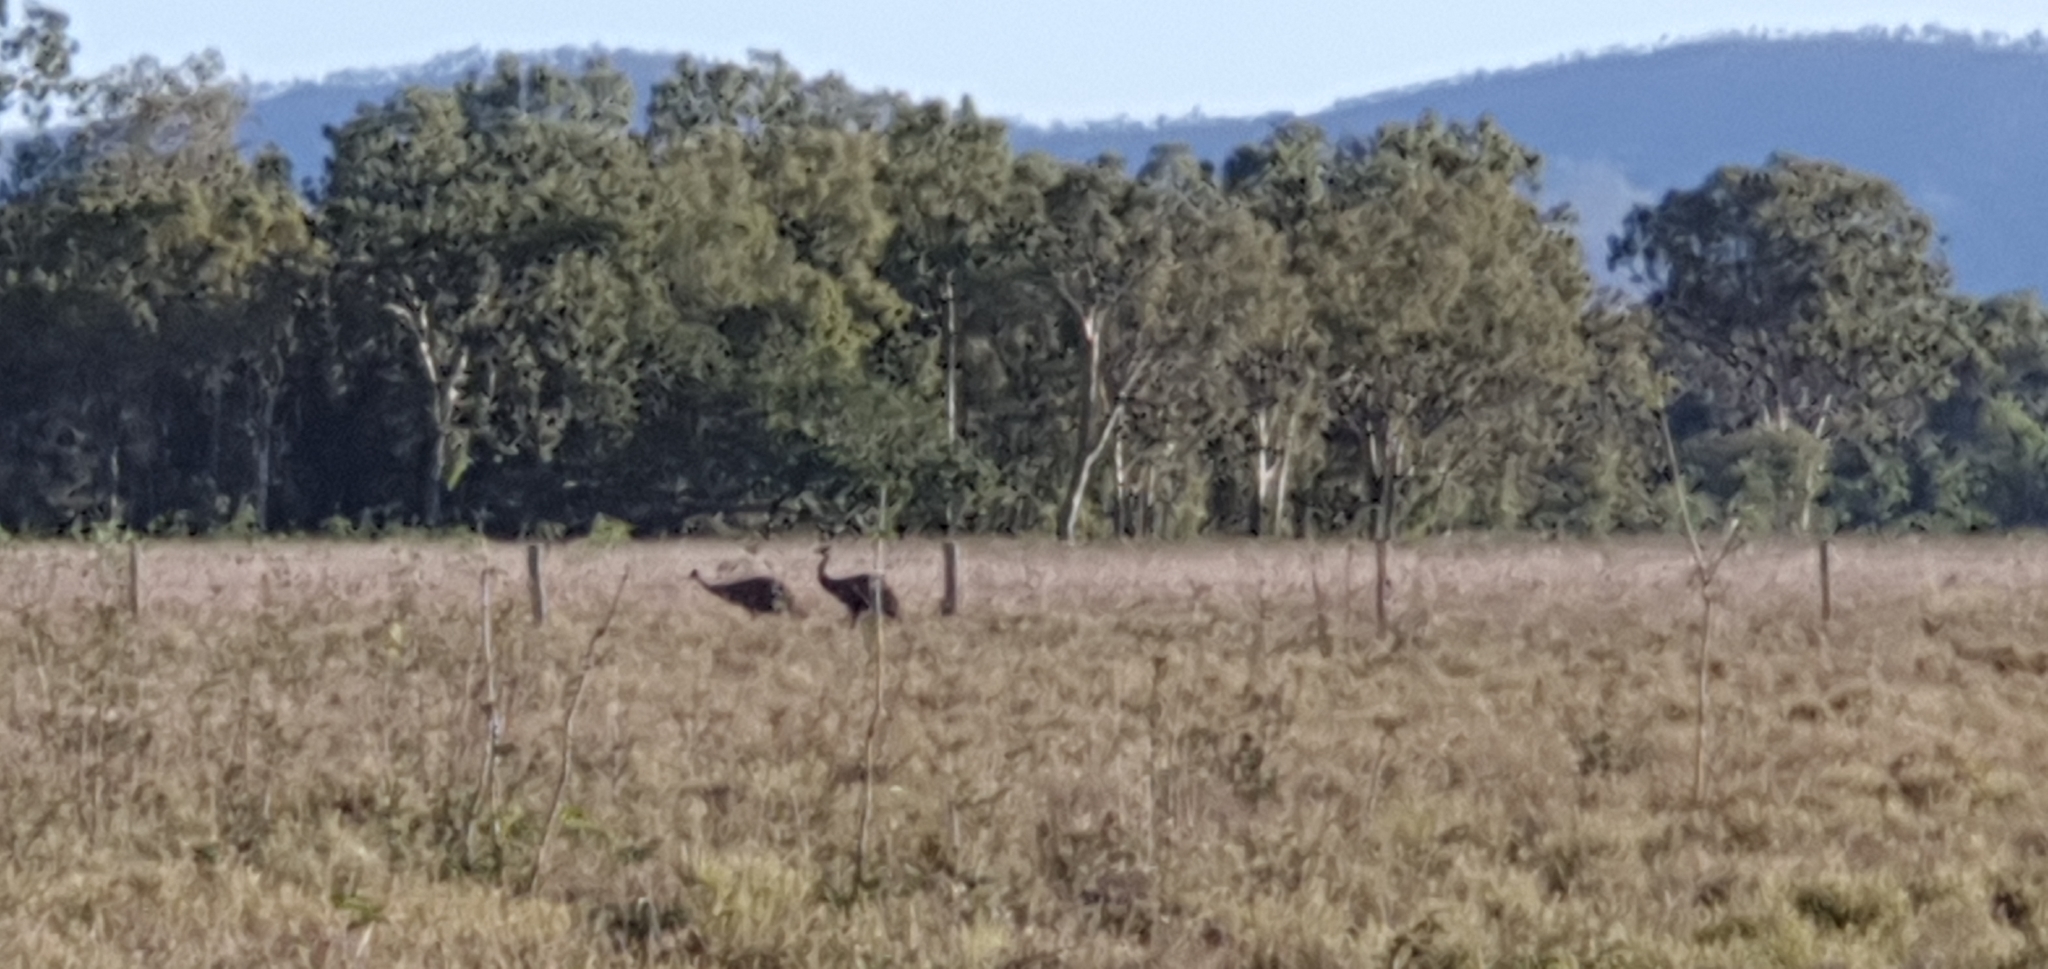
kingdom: Animalia
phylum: Chordata
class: Aves
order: Casuariiformes
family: Dromaiidae
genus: Dromaius
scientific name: Dromaius novaehollandiae
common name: Emu
